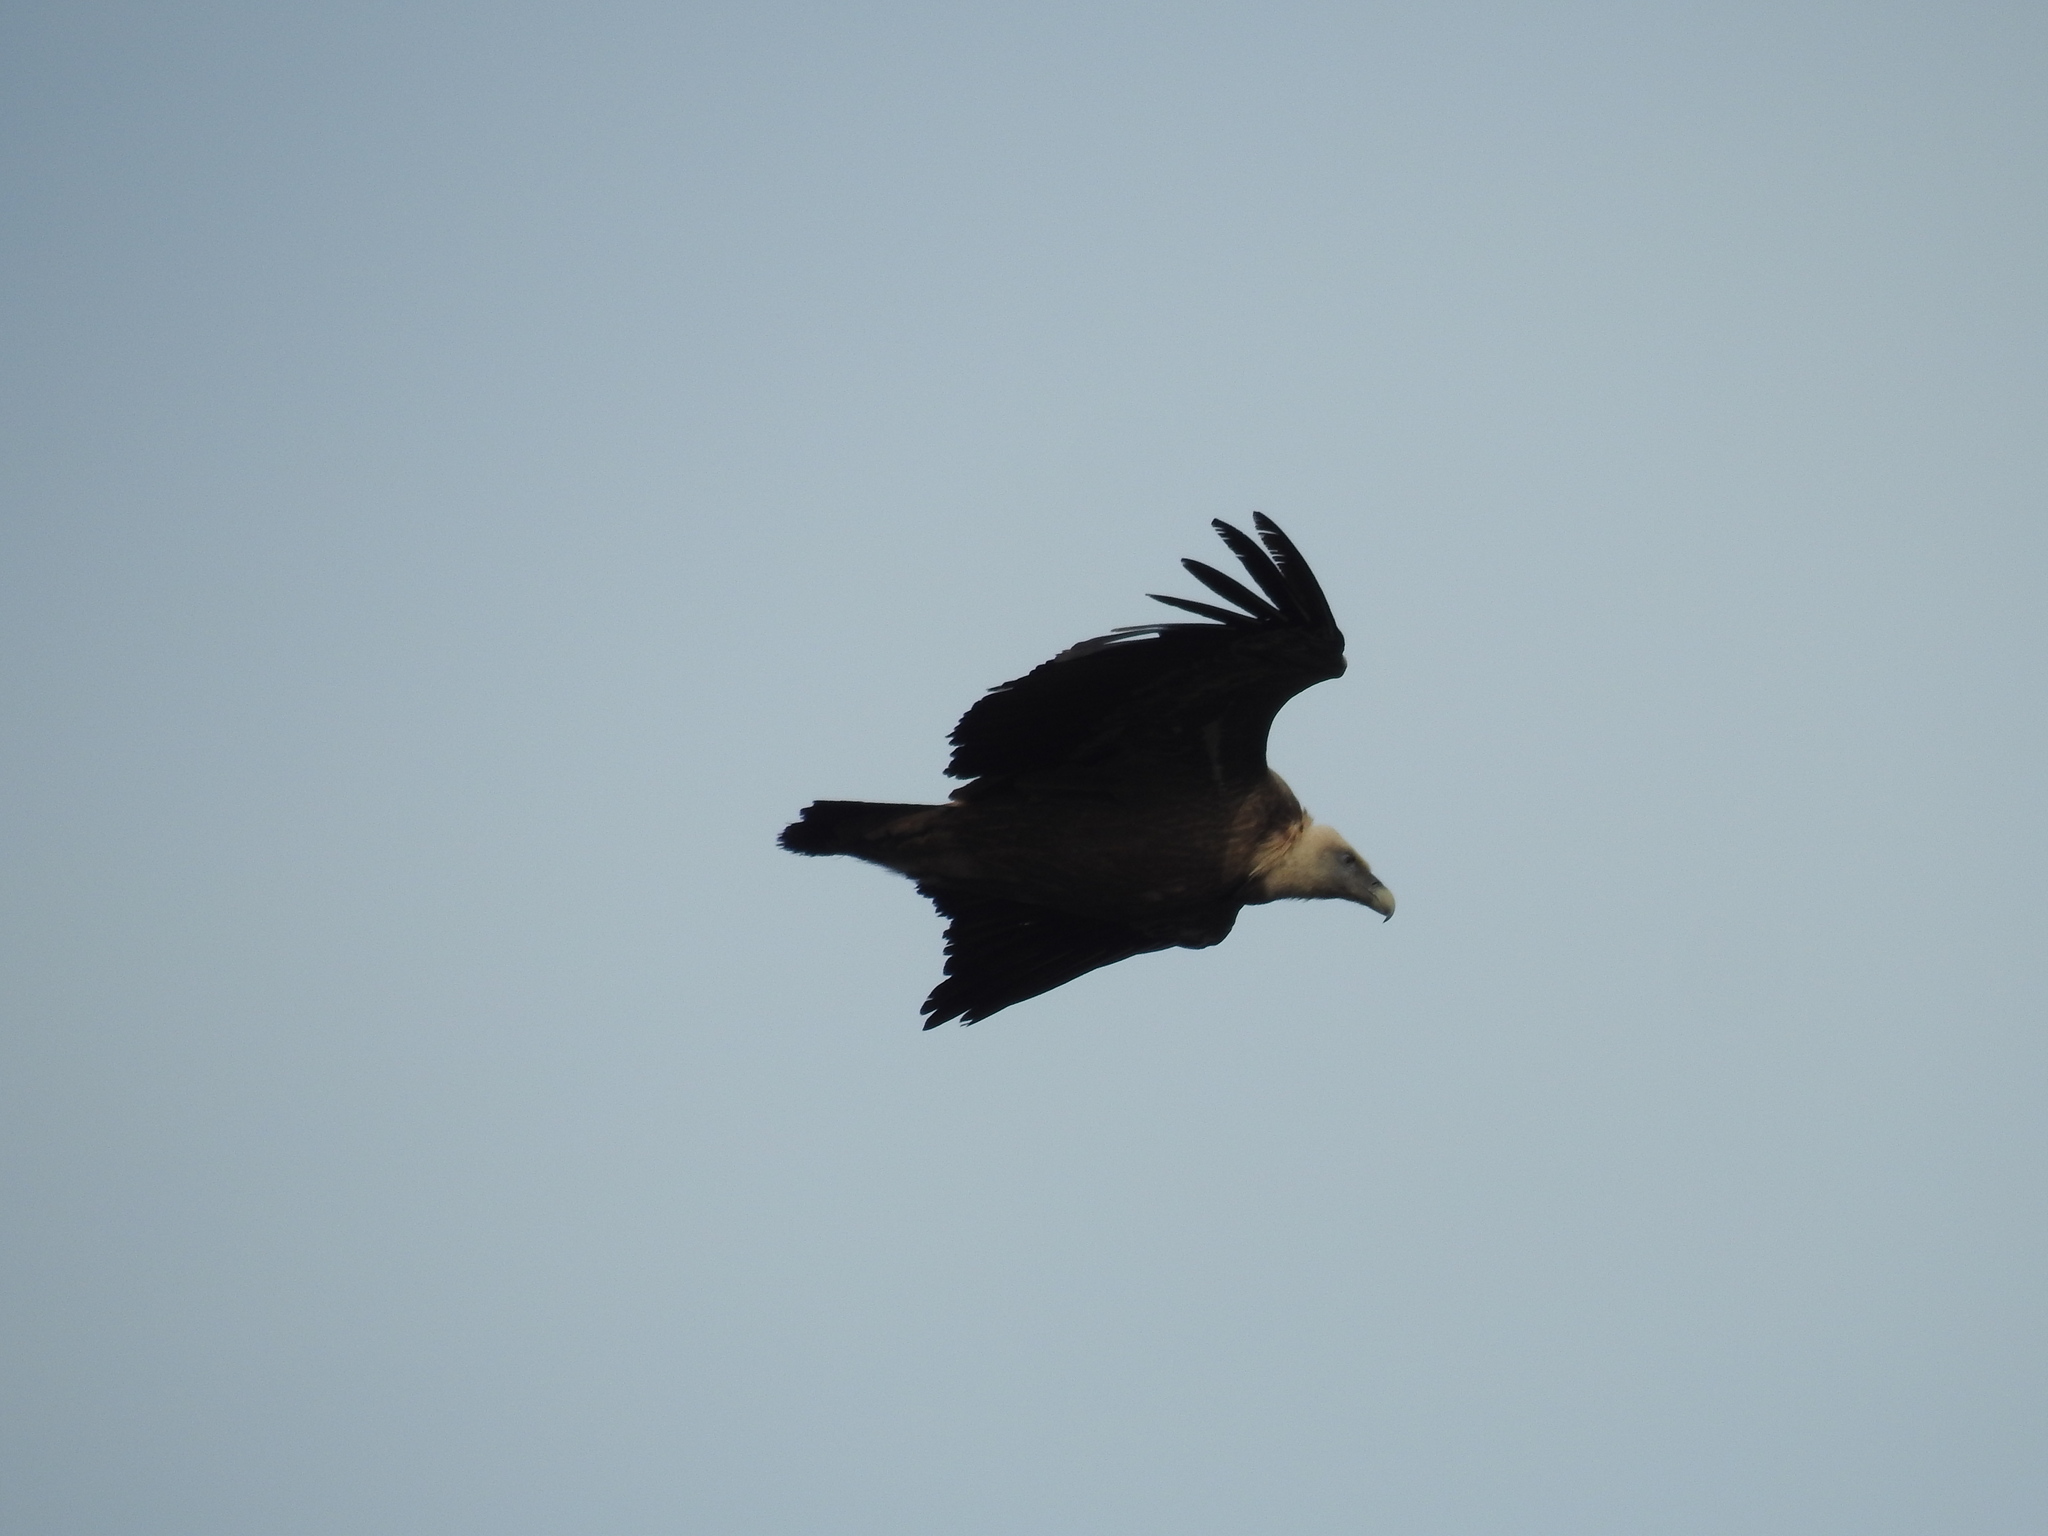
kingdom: Animalia
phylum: Chordata
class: Aves
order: Accipitriformes
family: Accipitridae
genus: Gyps
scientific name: Gyps fulvus
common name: Griffon vulture
